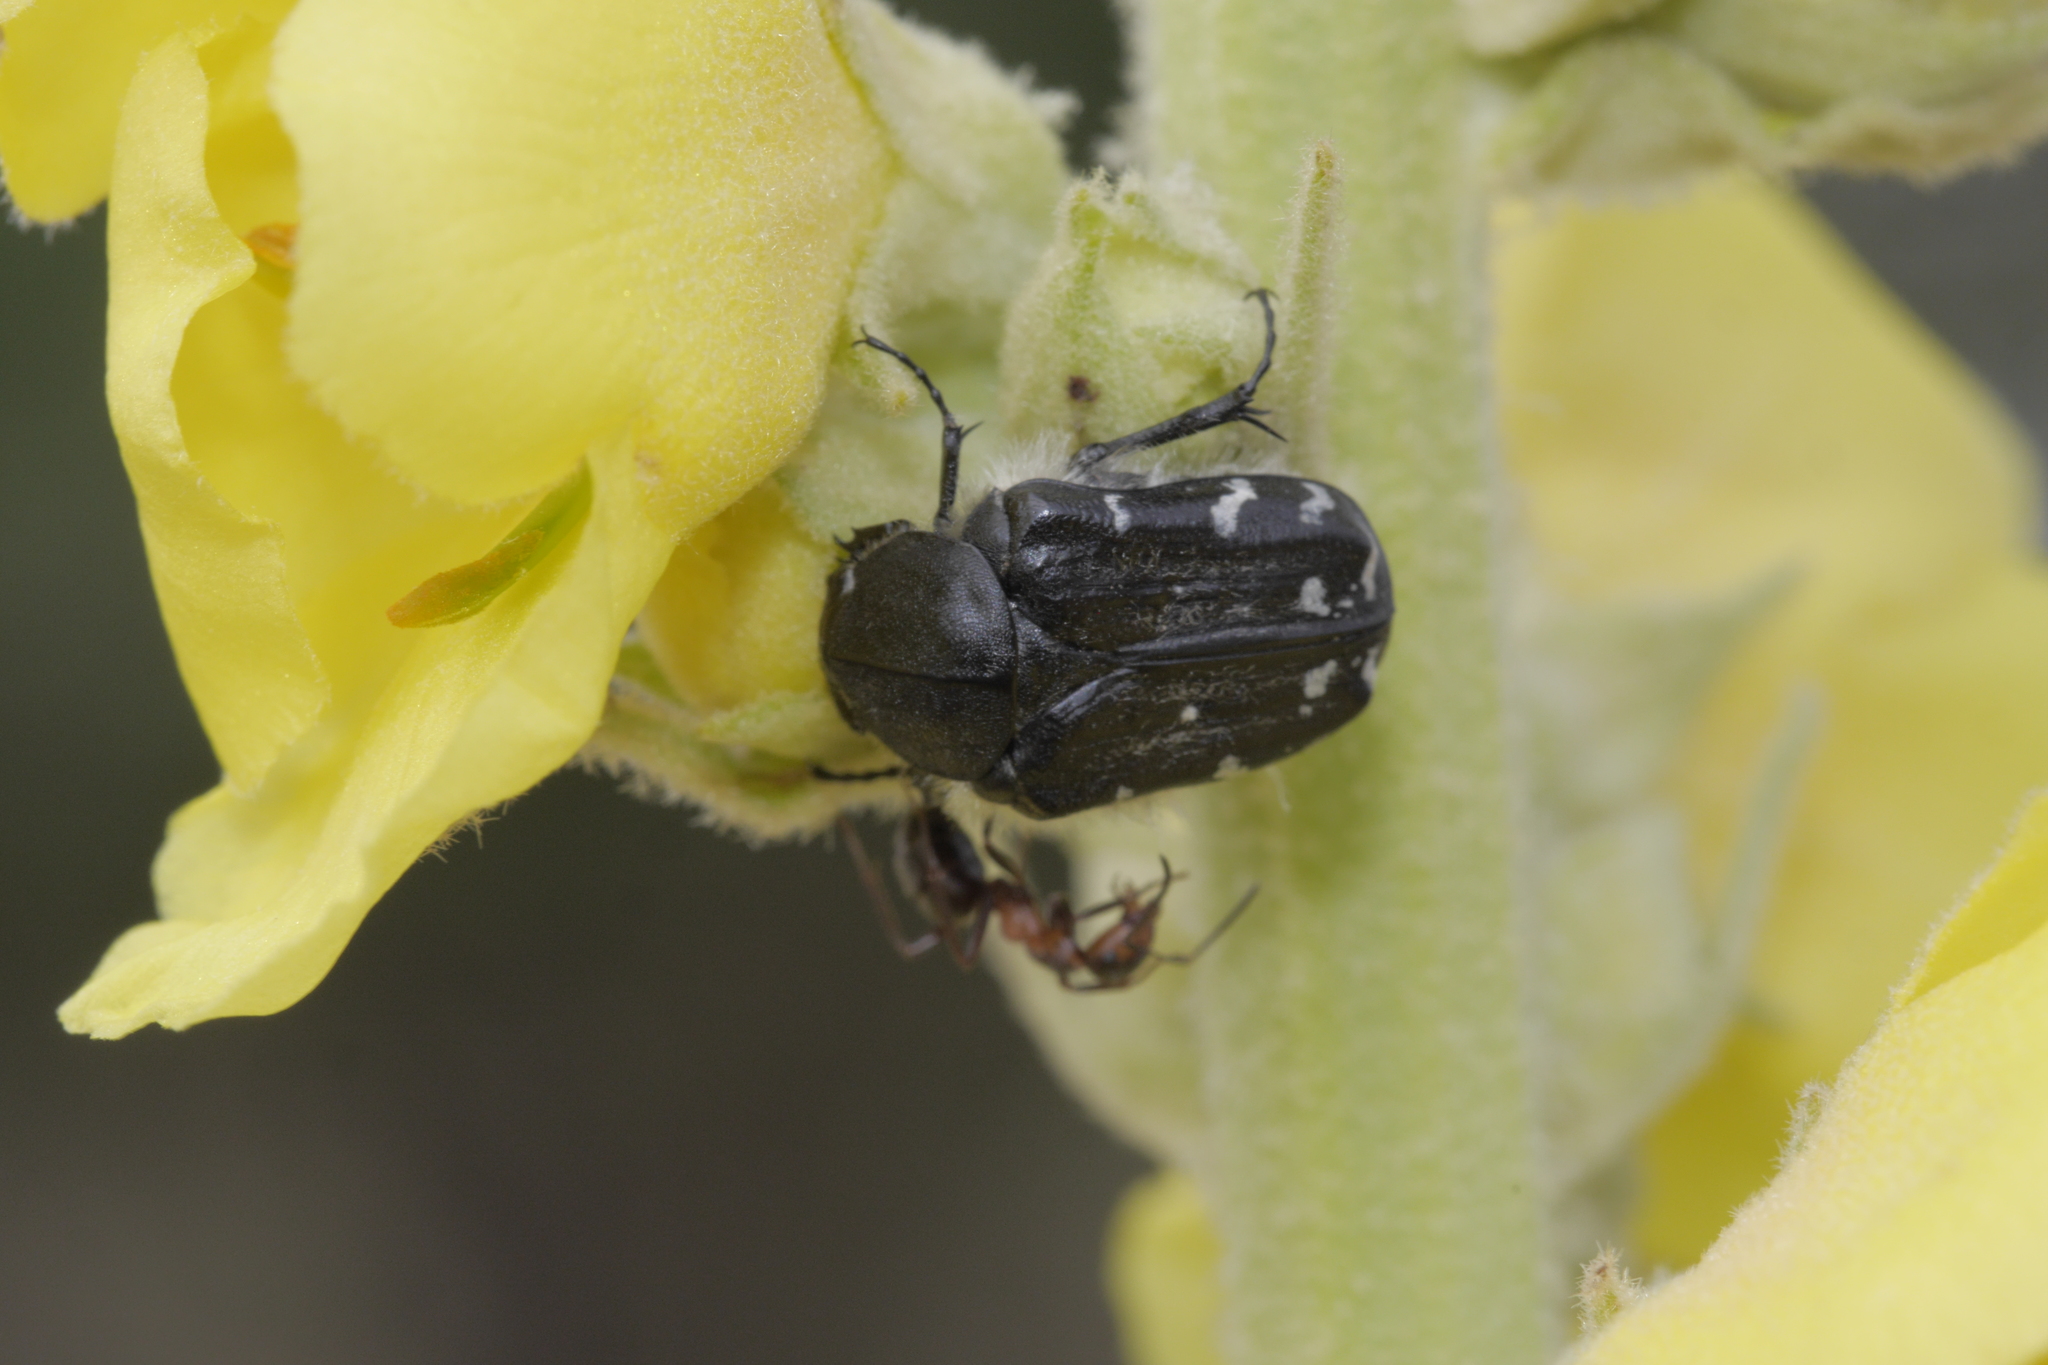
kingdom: Animalia
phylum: Arthropoda
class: Insecta
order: Coleoptera
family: Scarabaeidae
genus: Tropinota
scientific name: Tropinota hirta
